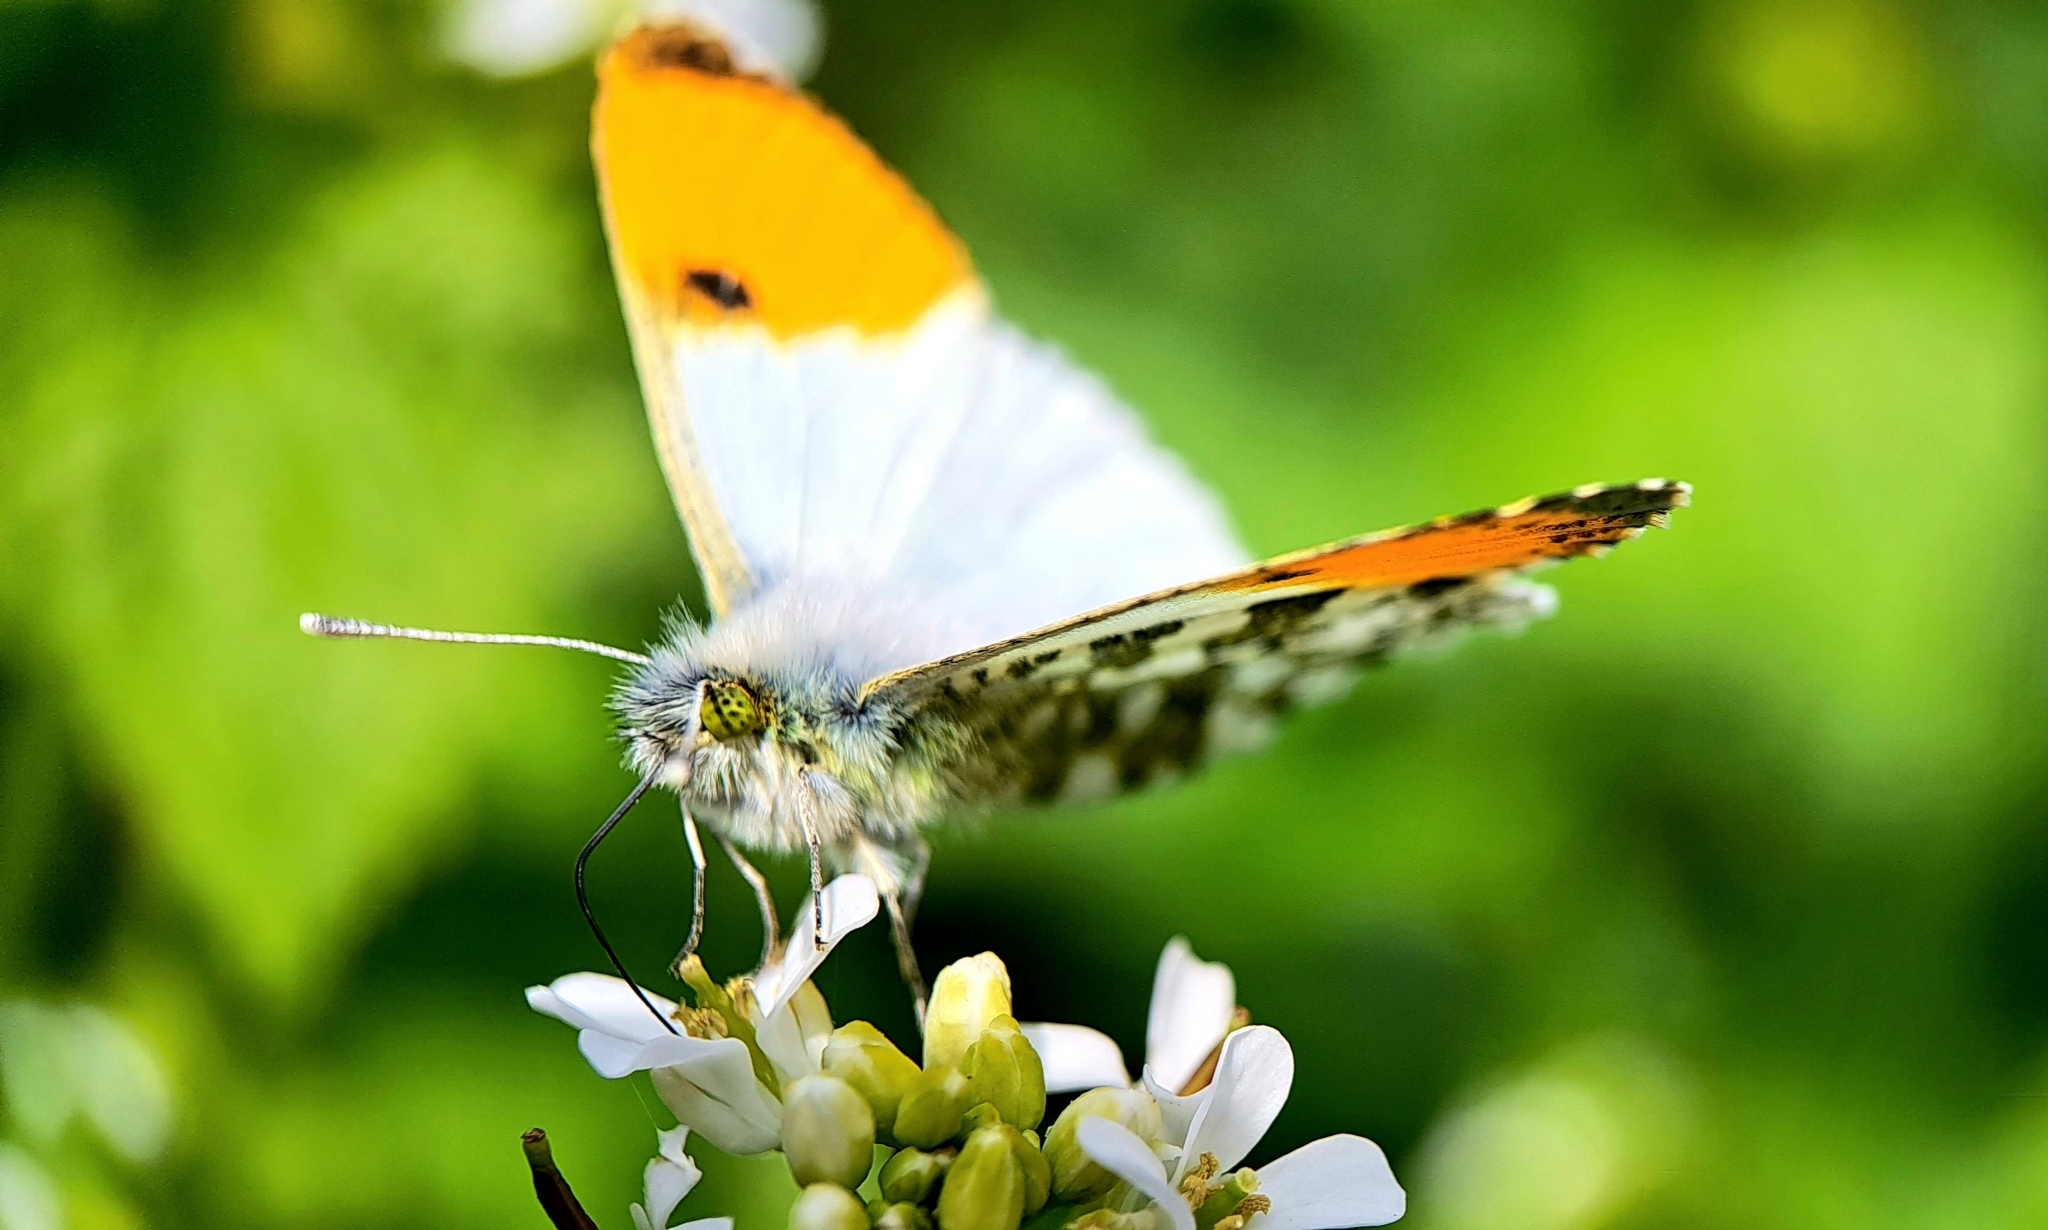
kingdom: Animalia
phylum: Arthropoda
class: Insecta
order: Lepidoptera
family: Pieridae
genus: Anthocharis
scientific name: Anthocharis cardamines
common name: Orange-tip
